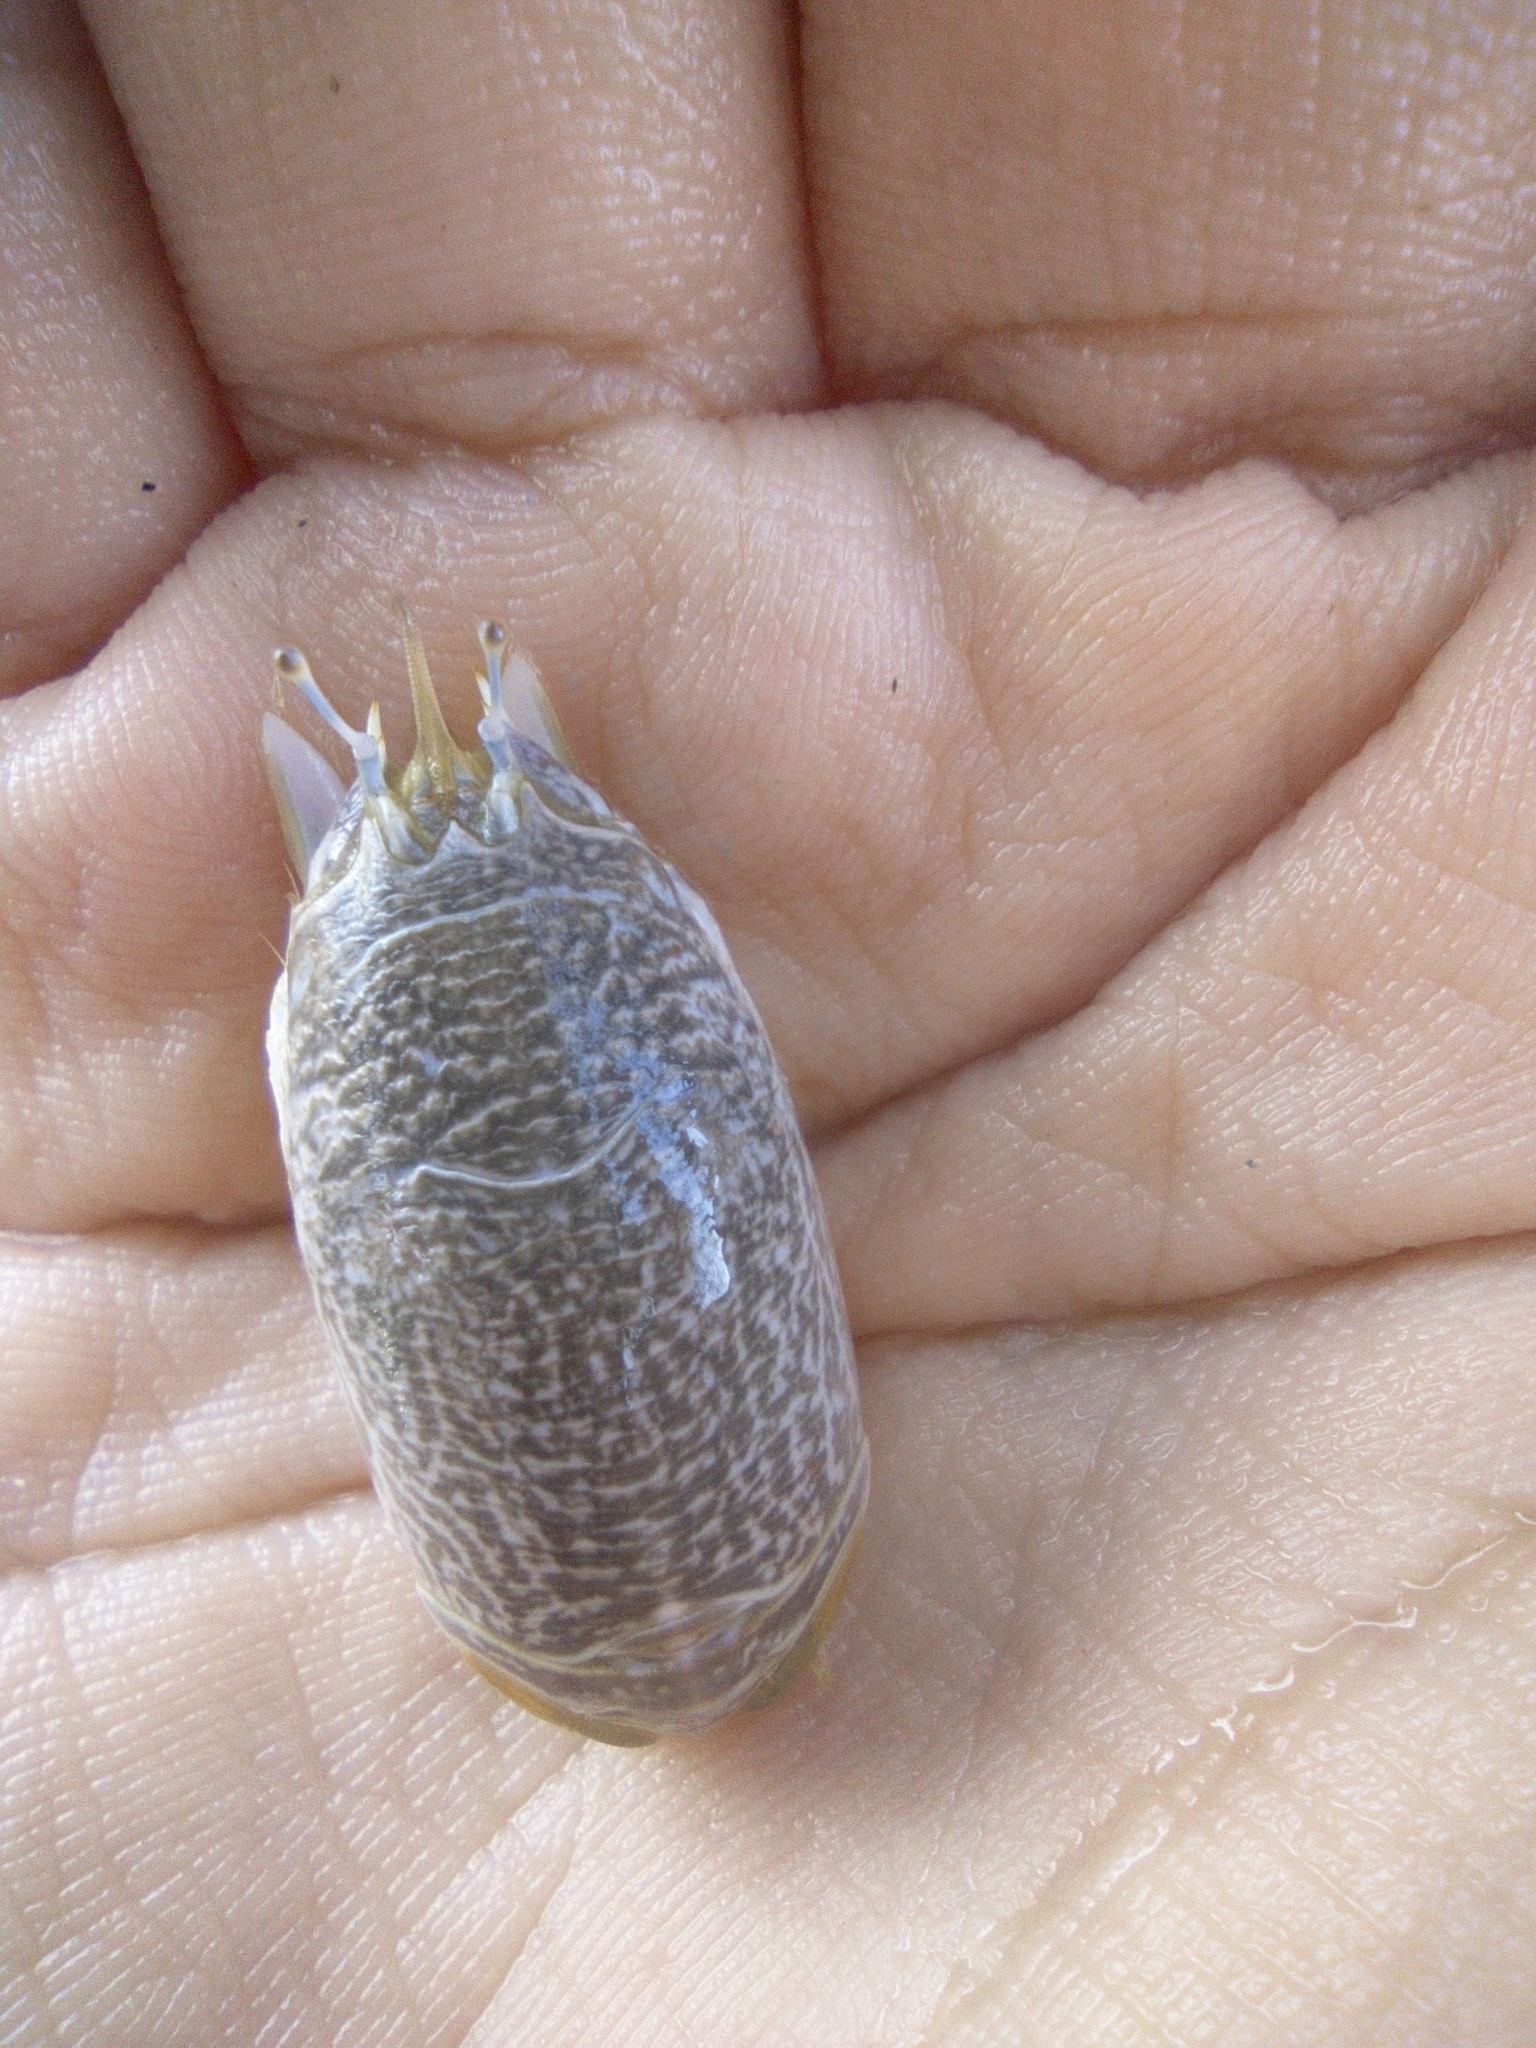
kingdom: Animalia
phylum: Arthropoda
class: Malacostraca
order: Decapoda
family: Hippidae
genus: Emerita
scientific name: Emerita portoricensis
